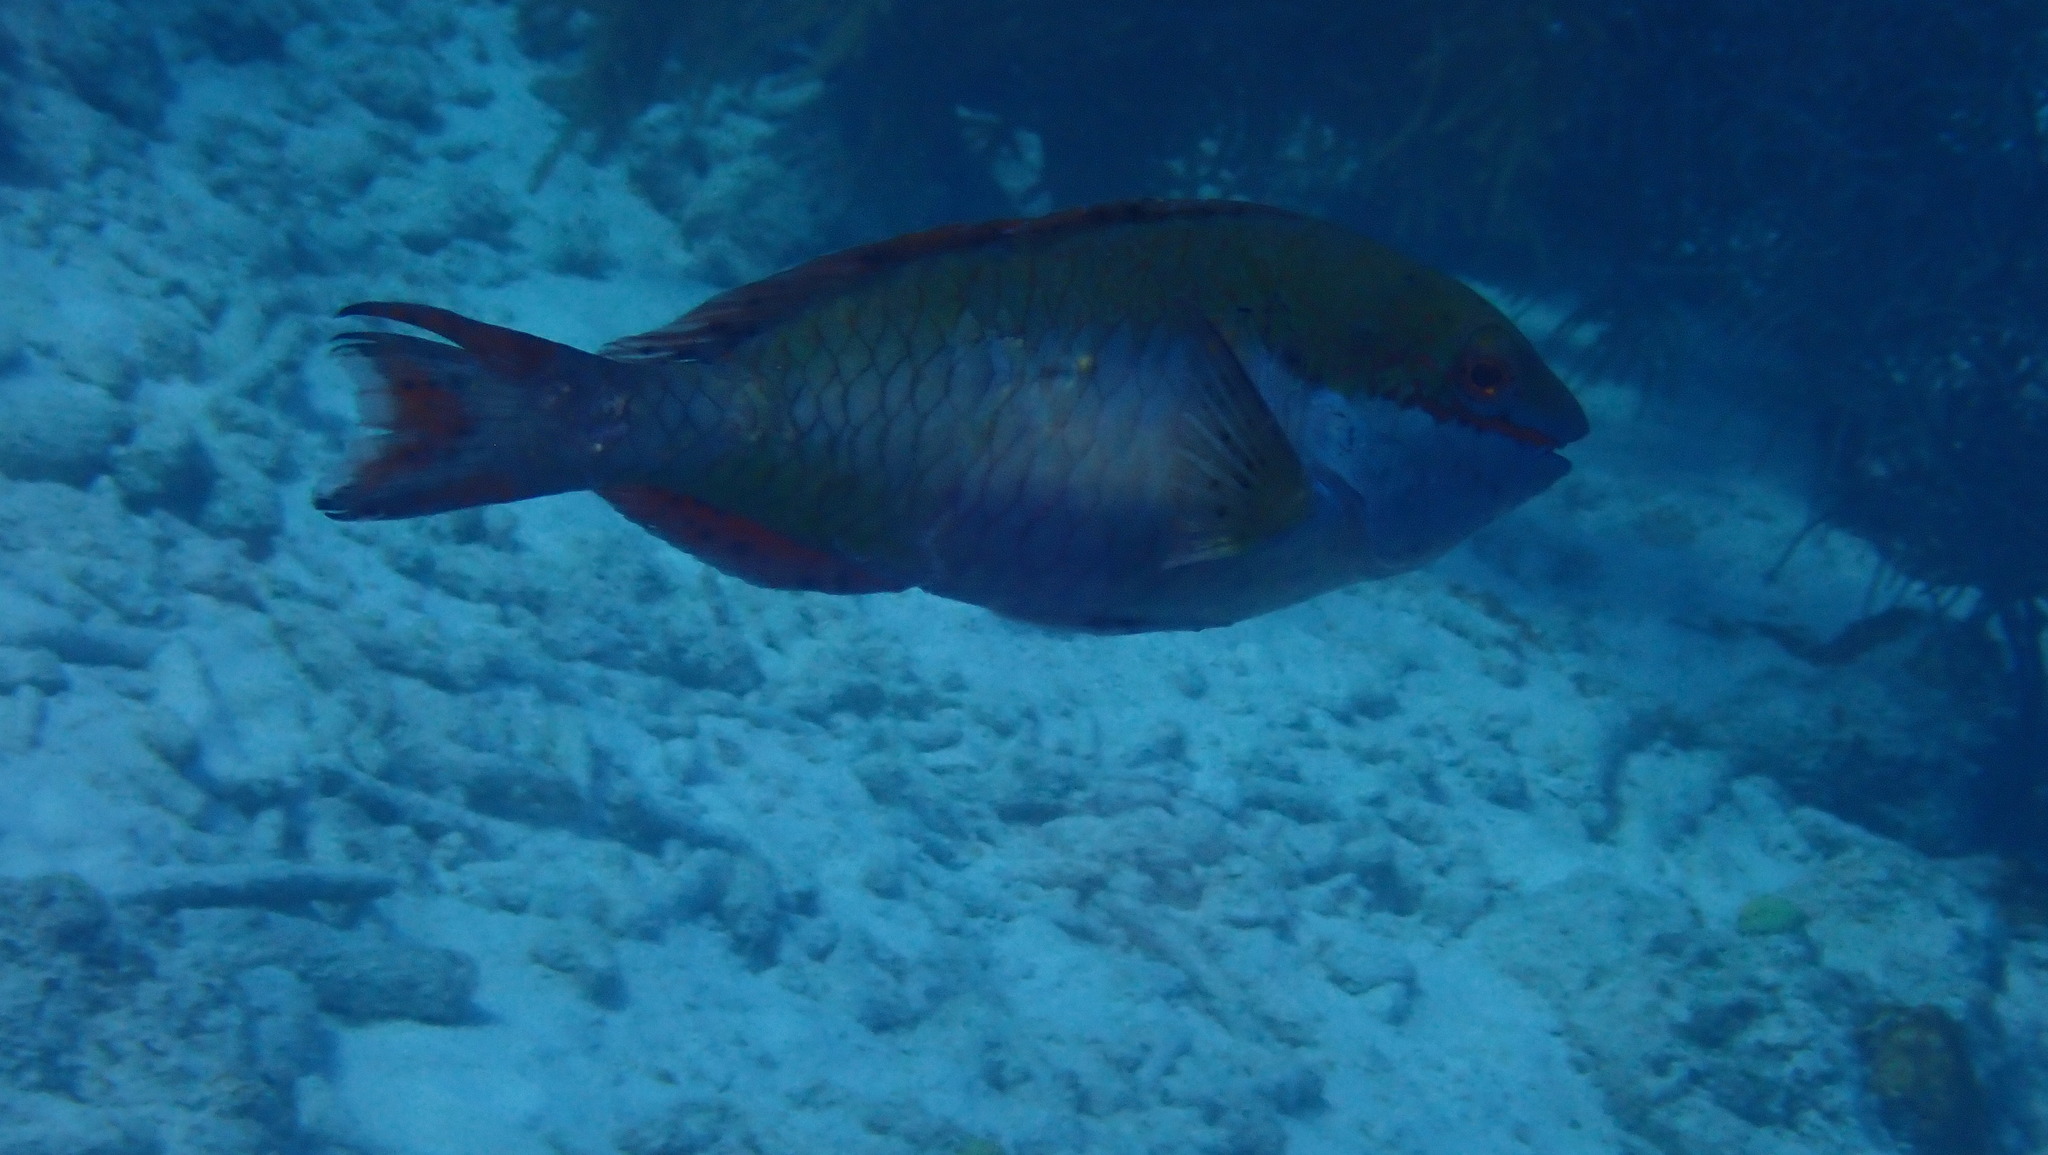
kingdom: Animalia
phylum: Chordata
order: Perciformes
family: Scaridae
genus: Sparisoma
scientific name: Sparisoma aurofrenatum
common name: Redband parrotfish
